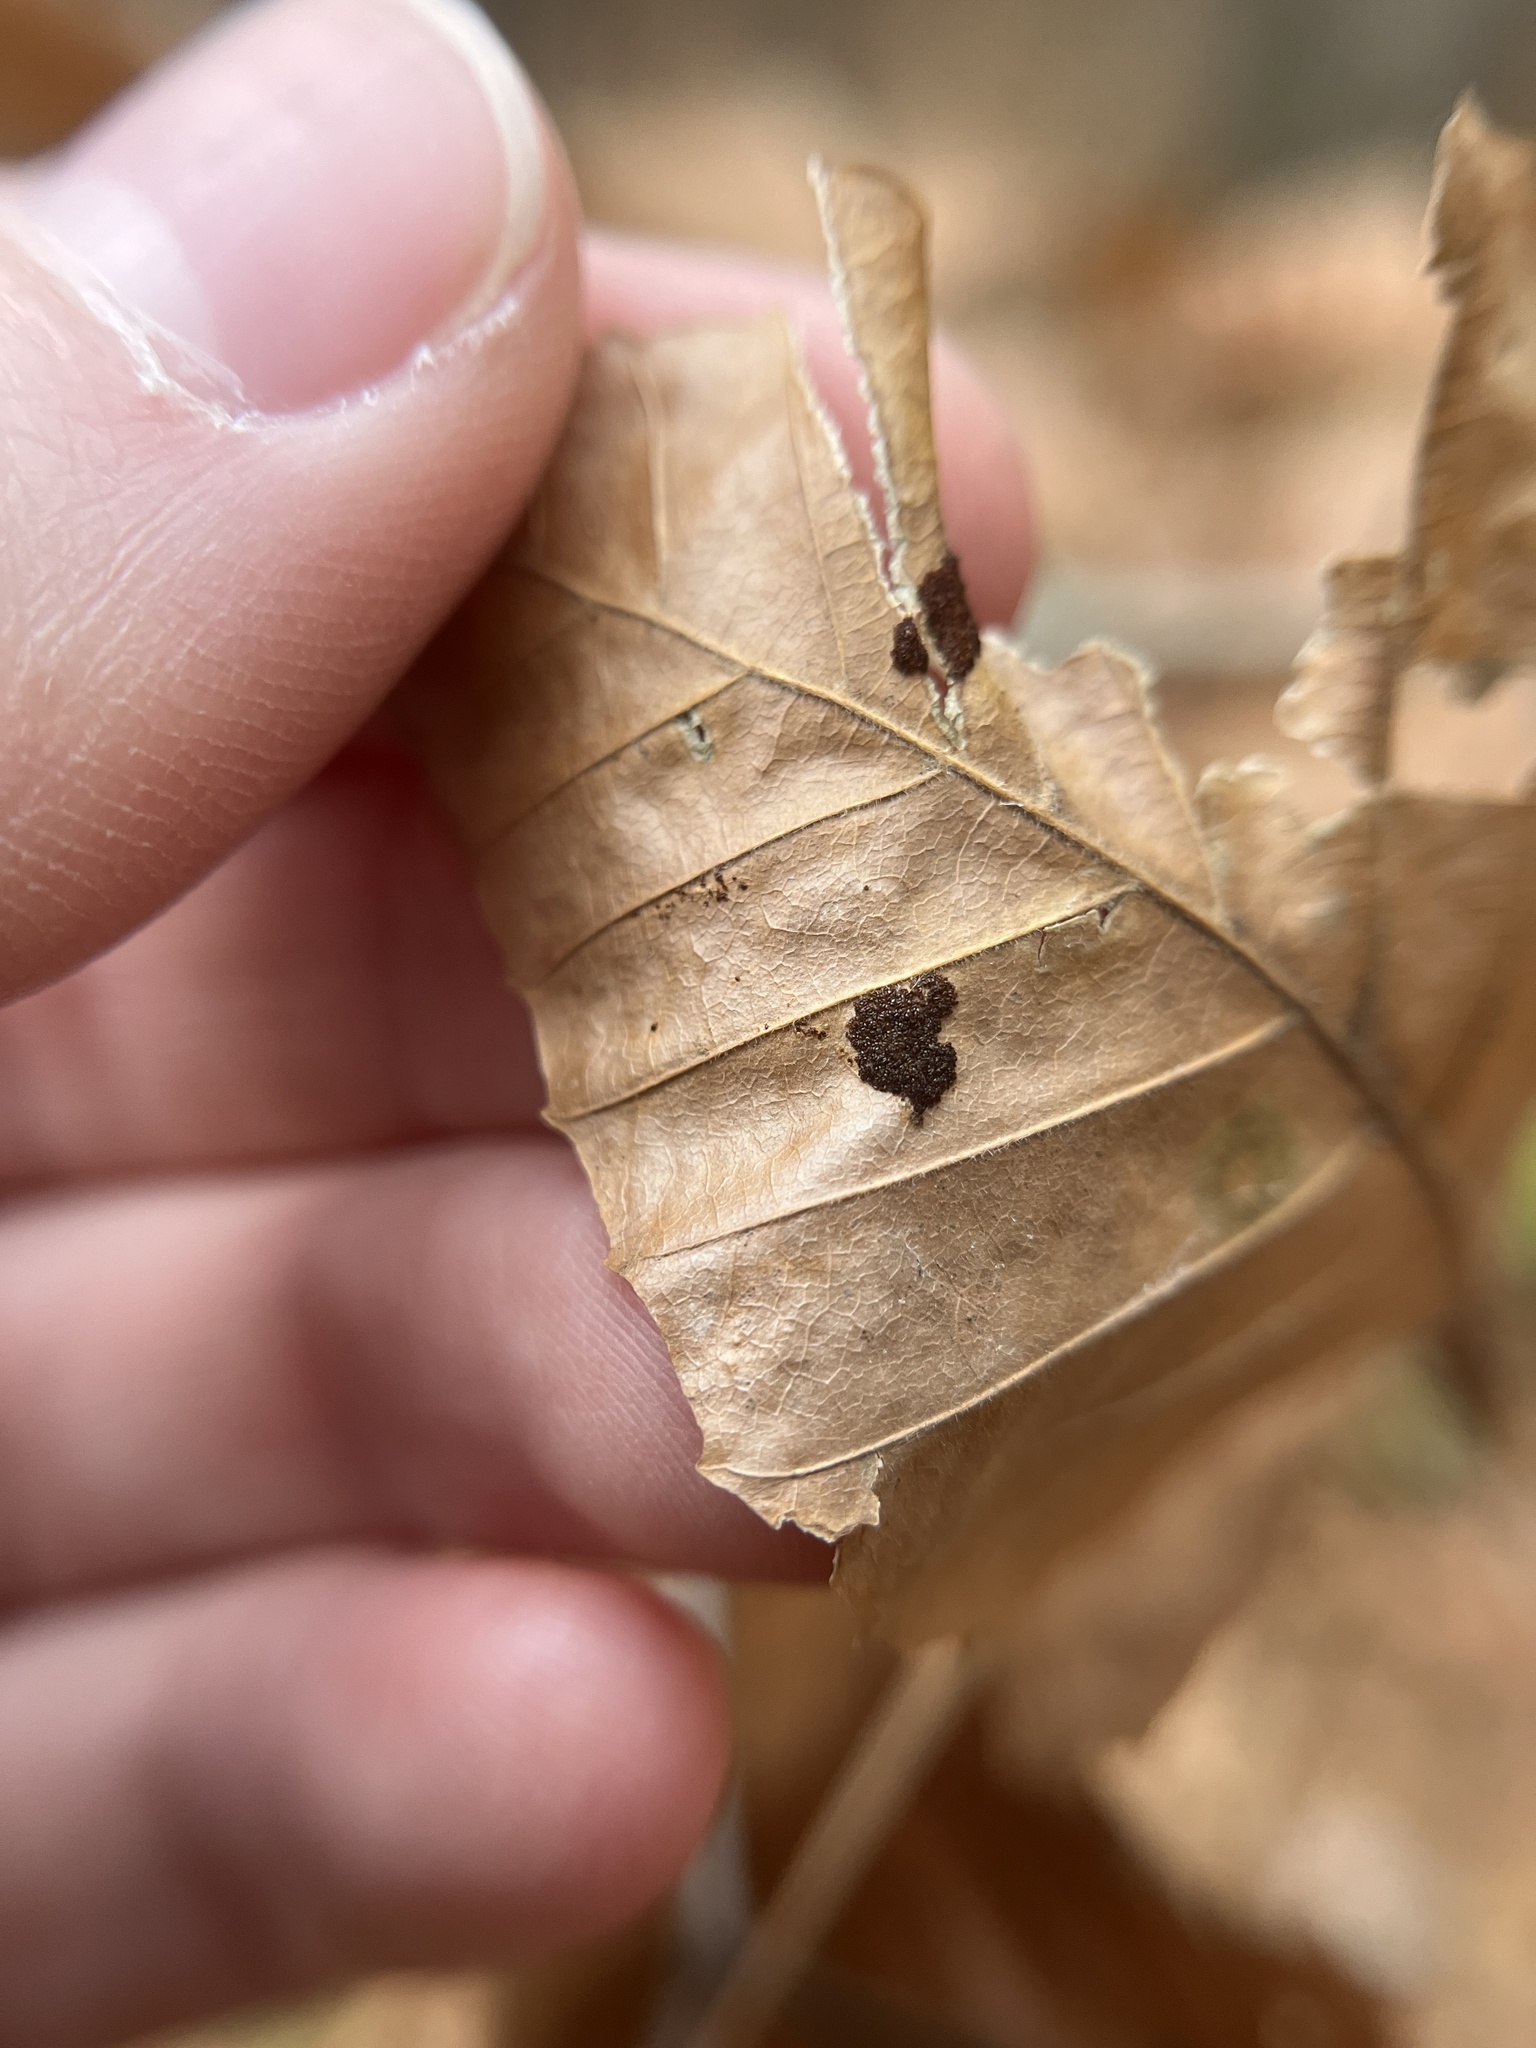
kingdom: Animalia
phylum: Arthropoda
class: Arachnida
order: Trombidiformes
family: Eriophyidae
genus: Acalitus
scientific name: Acalitus
